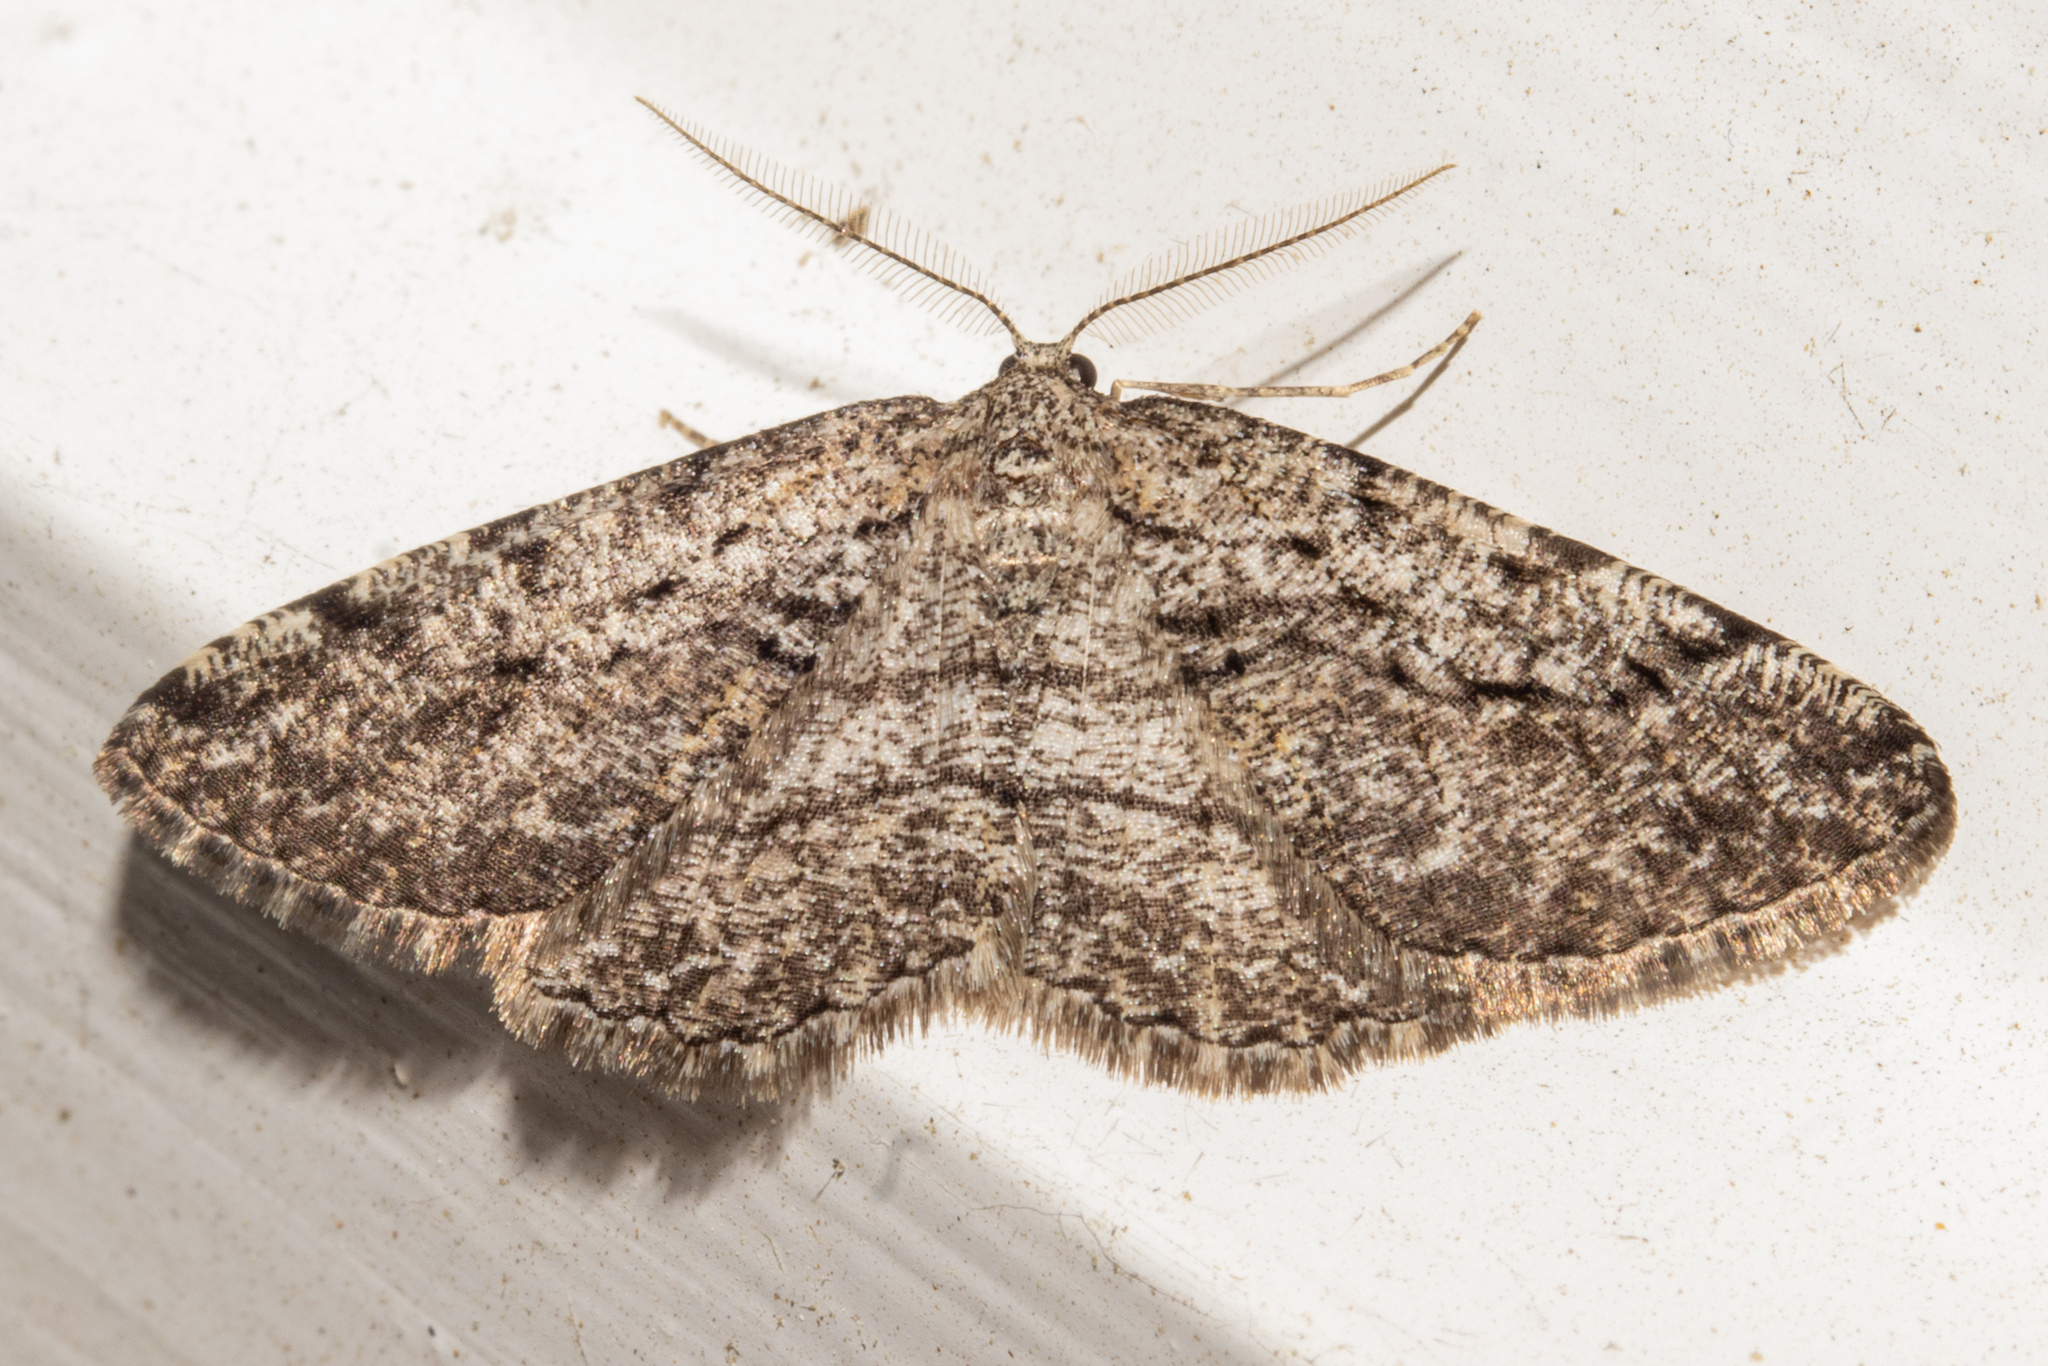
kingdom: Animalia
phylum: Arthropoda
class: Insecta
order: Lepidoptera
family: Geometridae
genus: Zermizinga
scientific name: Zermizinga indocilisaria
